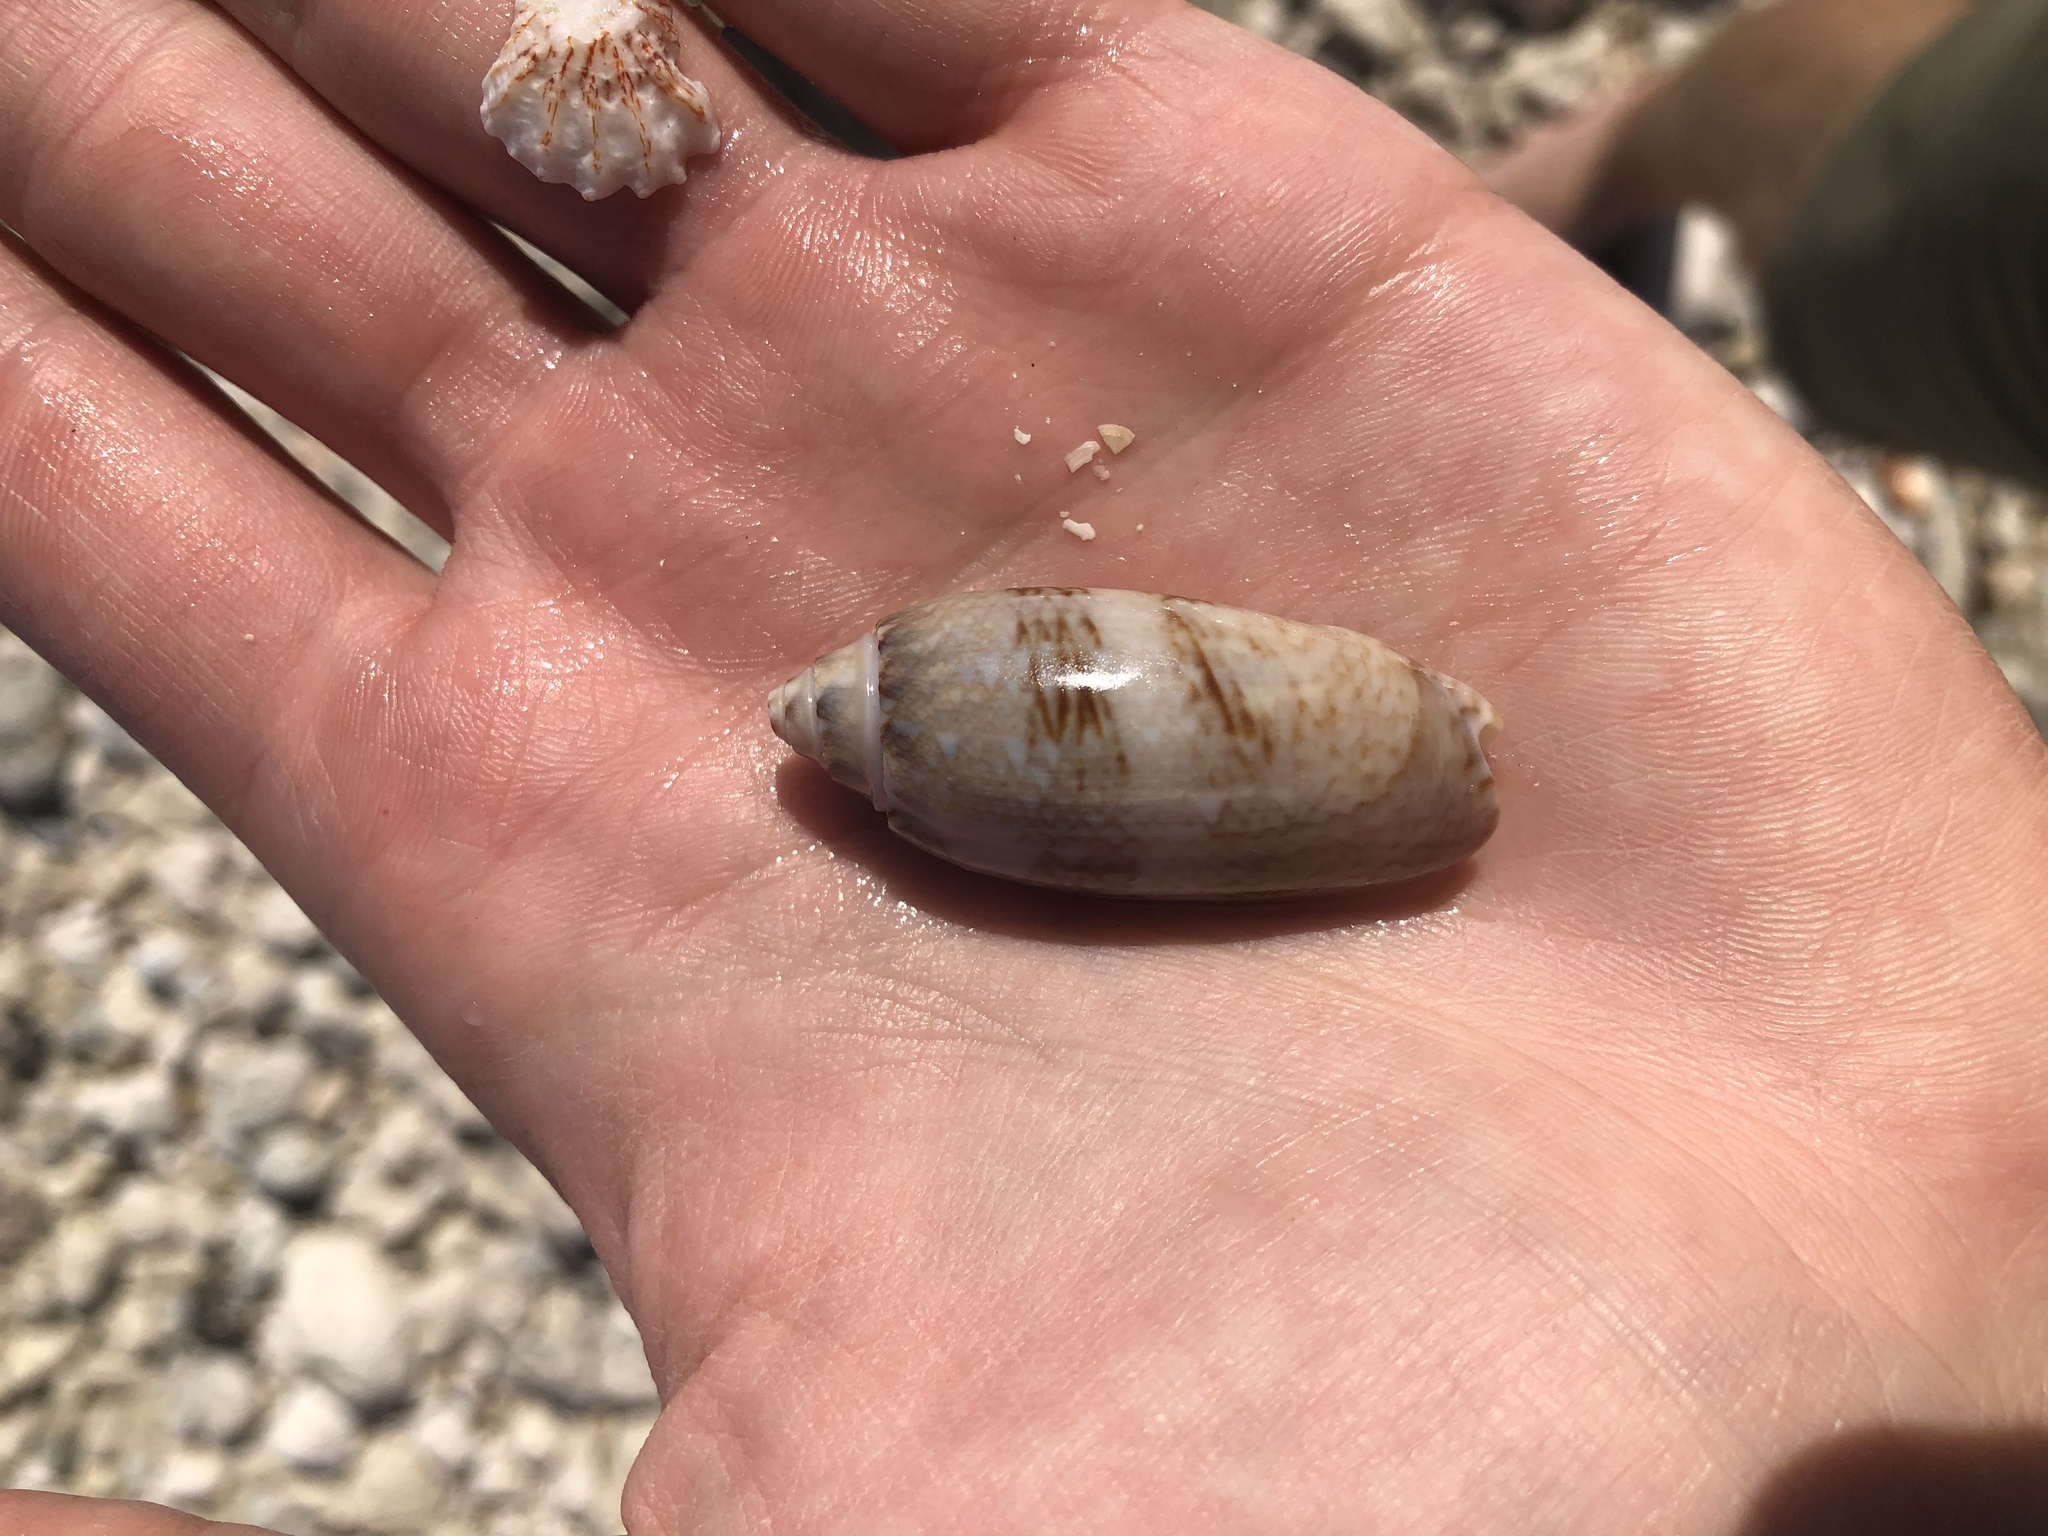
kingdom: Animalia
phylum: Mollusca
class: Gastropoda
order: Neogastropoda
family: Olividae
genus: Oliva
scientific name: Oliva sayana
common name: Lettered olive
